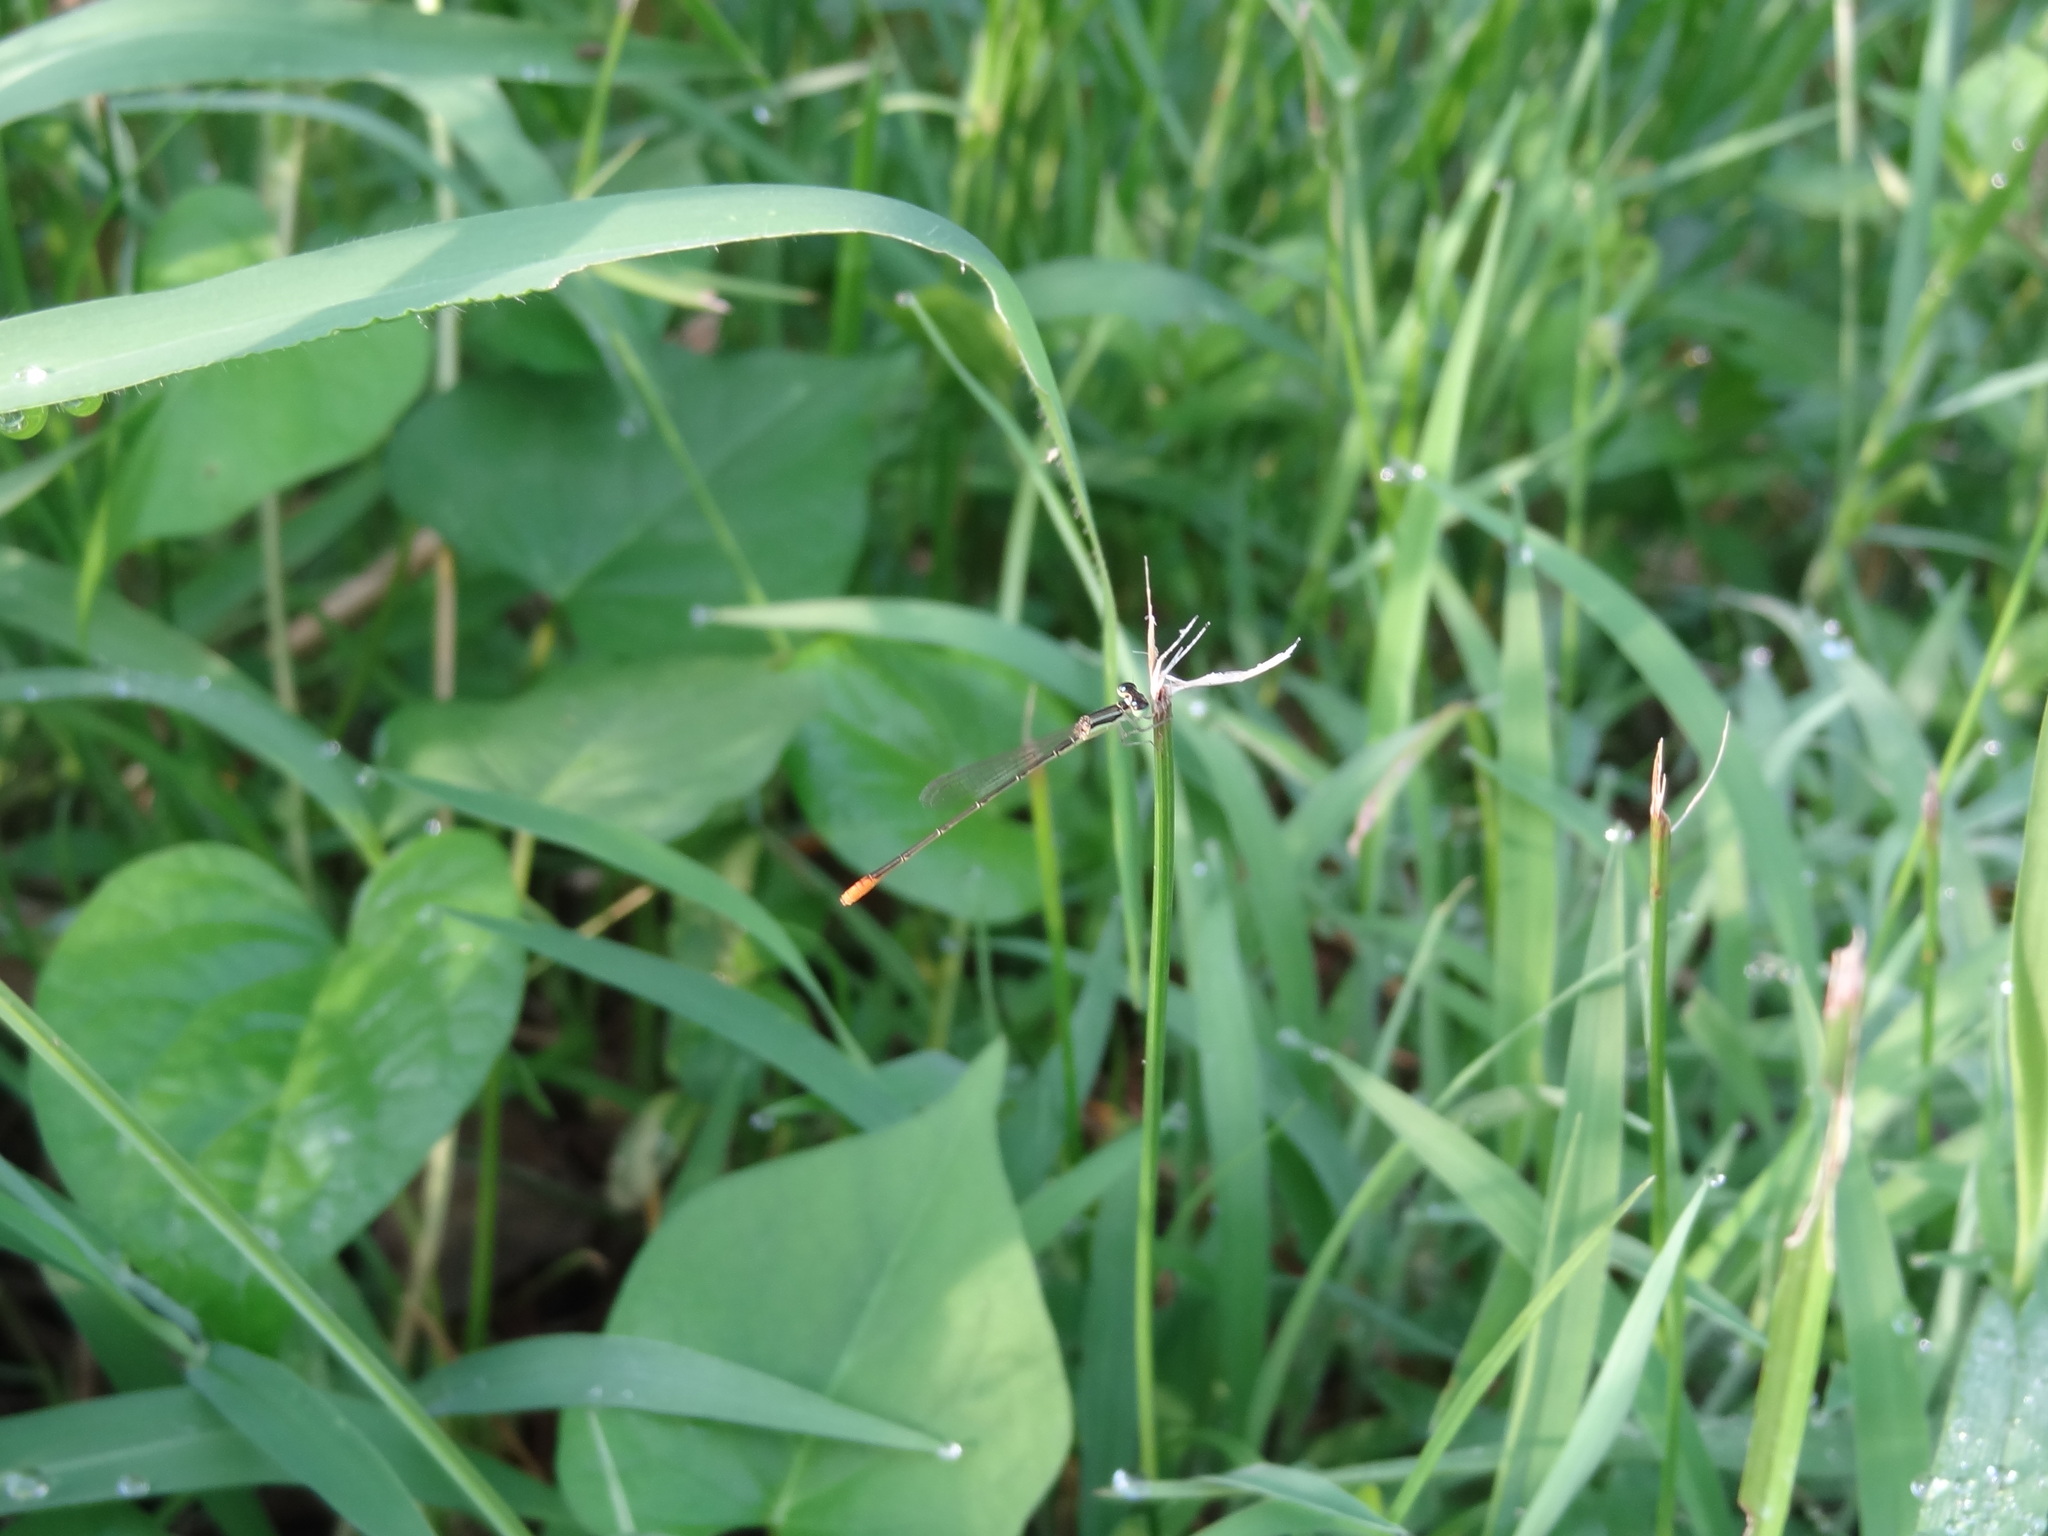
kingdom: Animalia
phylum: Arthropoda
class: Insecta
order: Odonata
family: Coenagrionidae
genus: Agriocnemis
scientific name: Agriocnemis pygmaea
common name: Pygmy wisp
